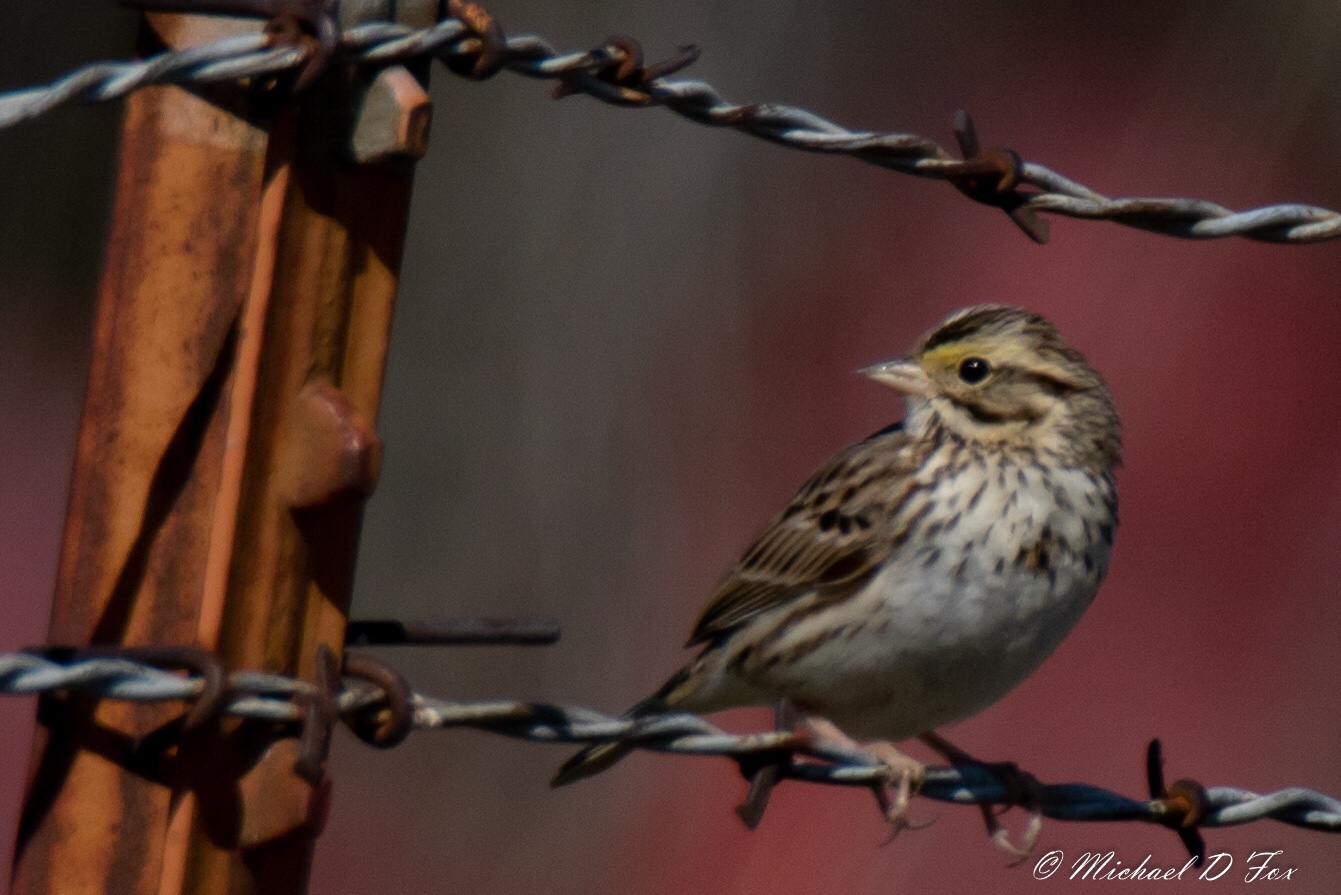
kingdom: Animalia
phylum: Chordata
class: Aves
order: Passeriformes
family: Passerellidae
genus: Passerculus
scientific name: Passerculus sandwichensis
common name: Savannah sparrow
